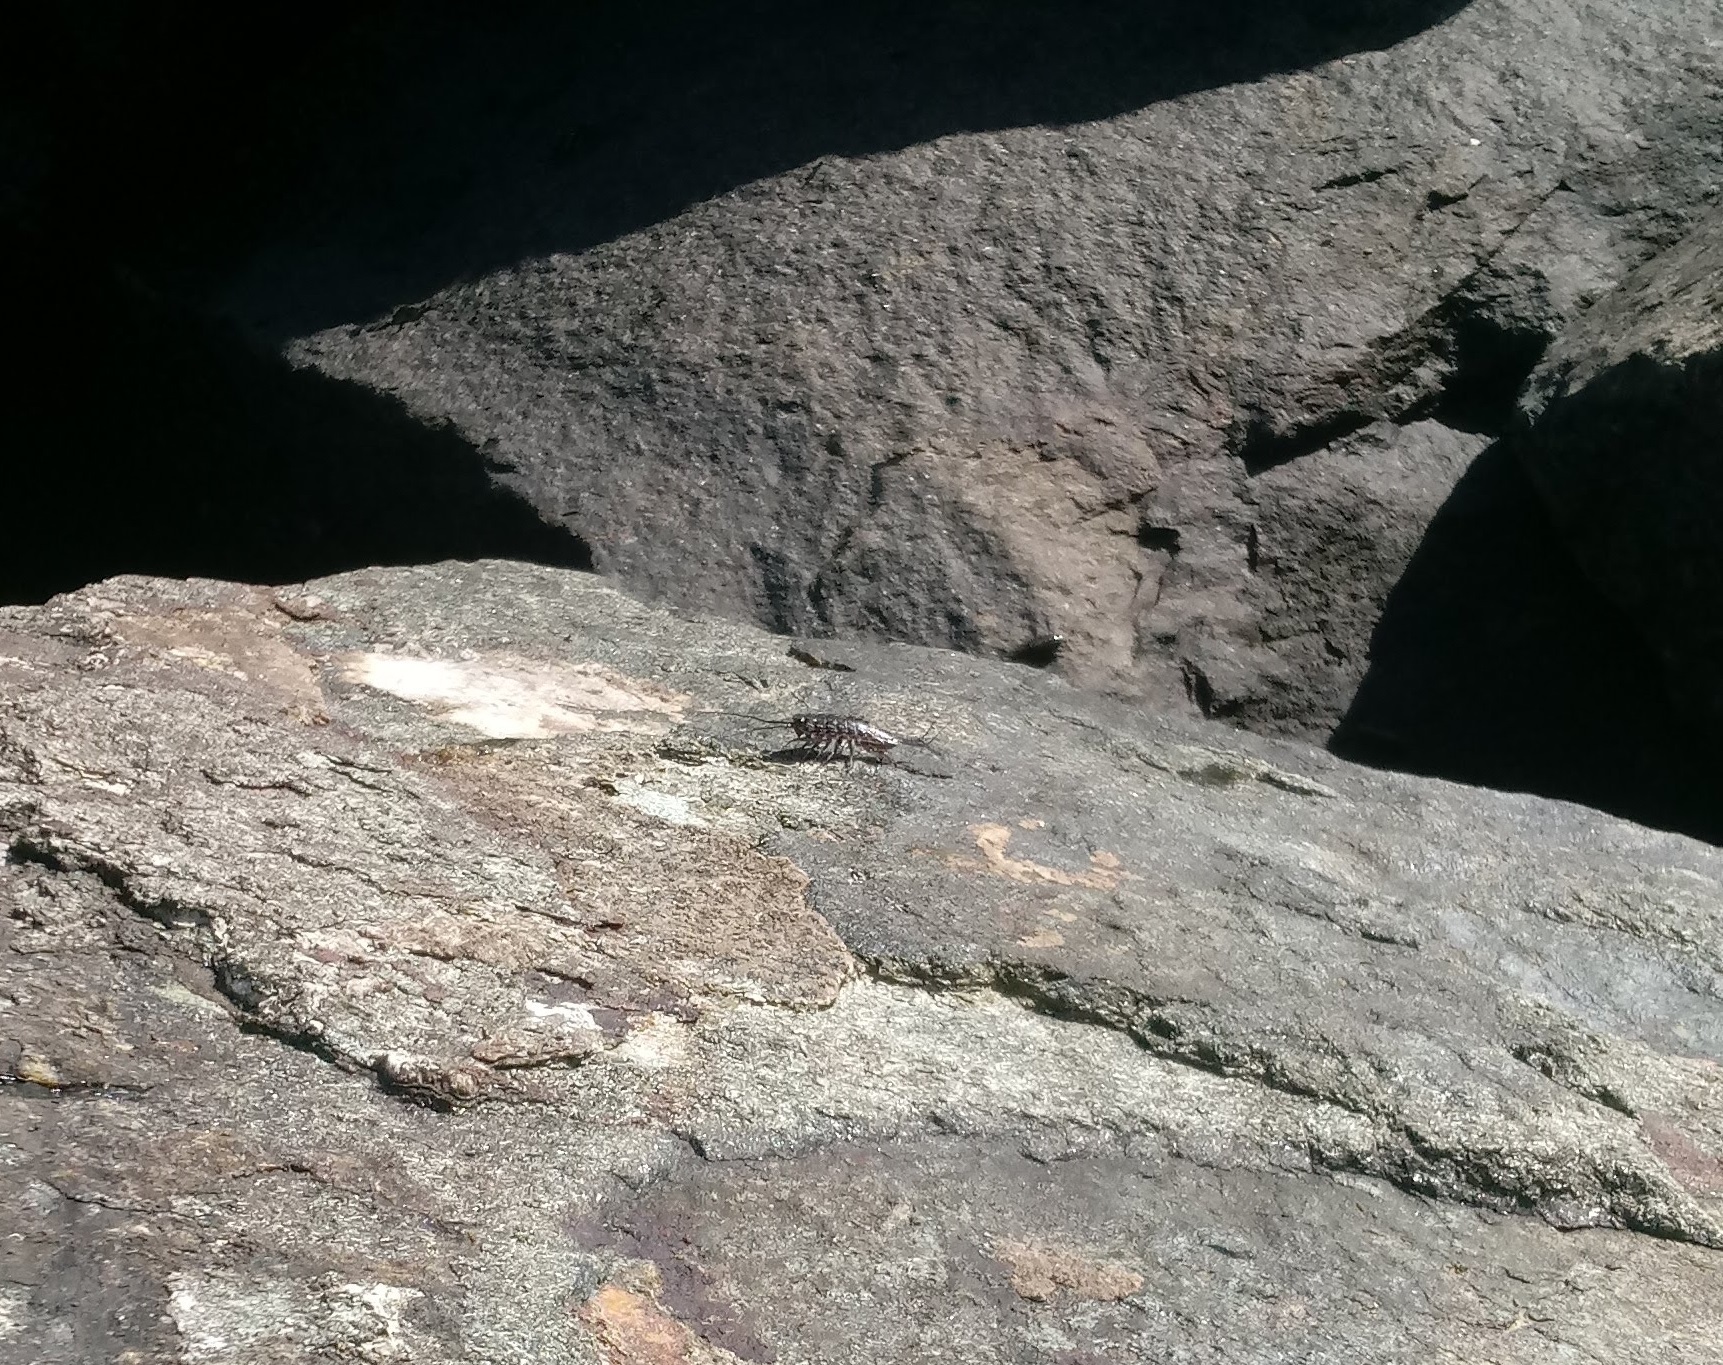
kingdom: Animalia
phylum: Arthropoda
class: Malacostraca
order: Isopoda
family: Ligiidae
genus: Ligia
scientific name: Ligia exotica
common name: Wharf roach
